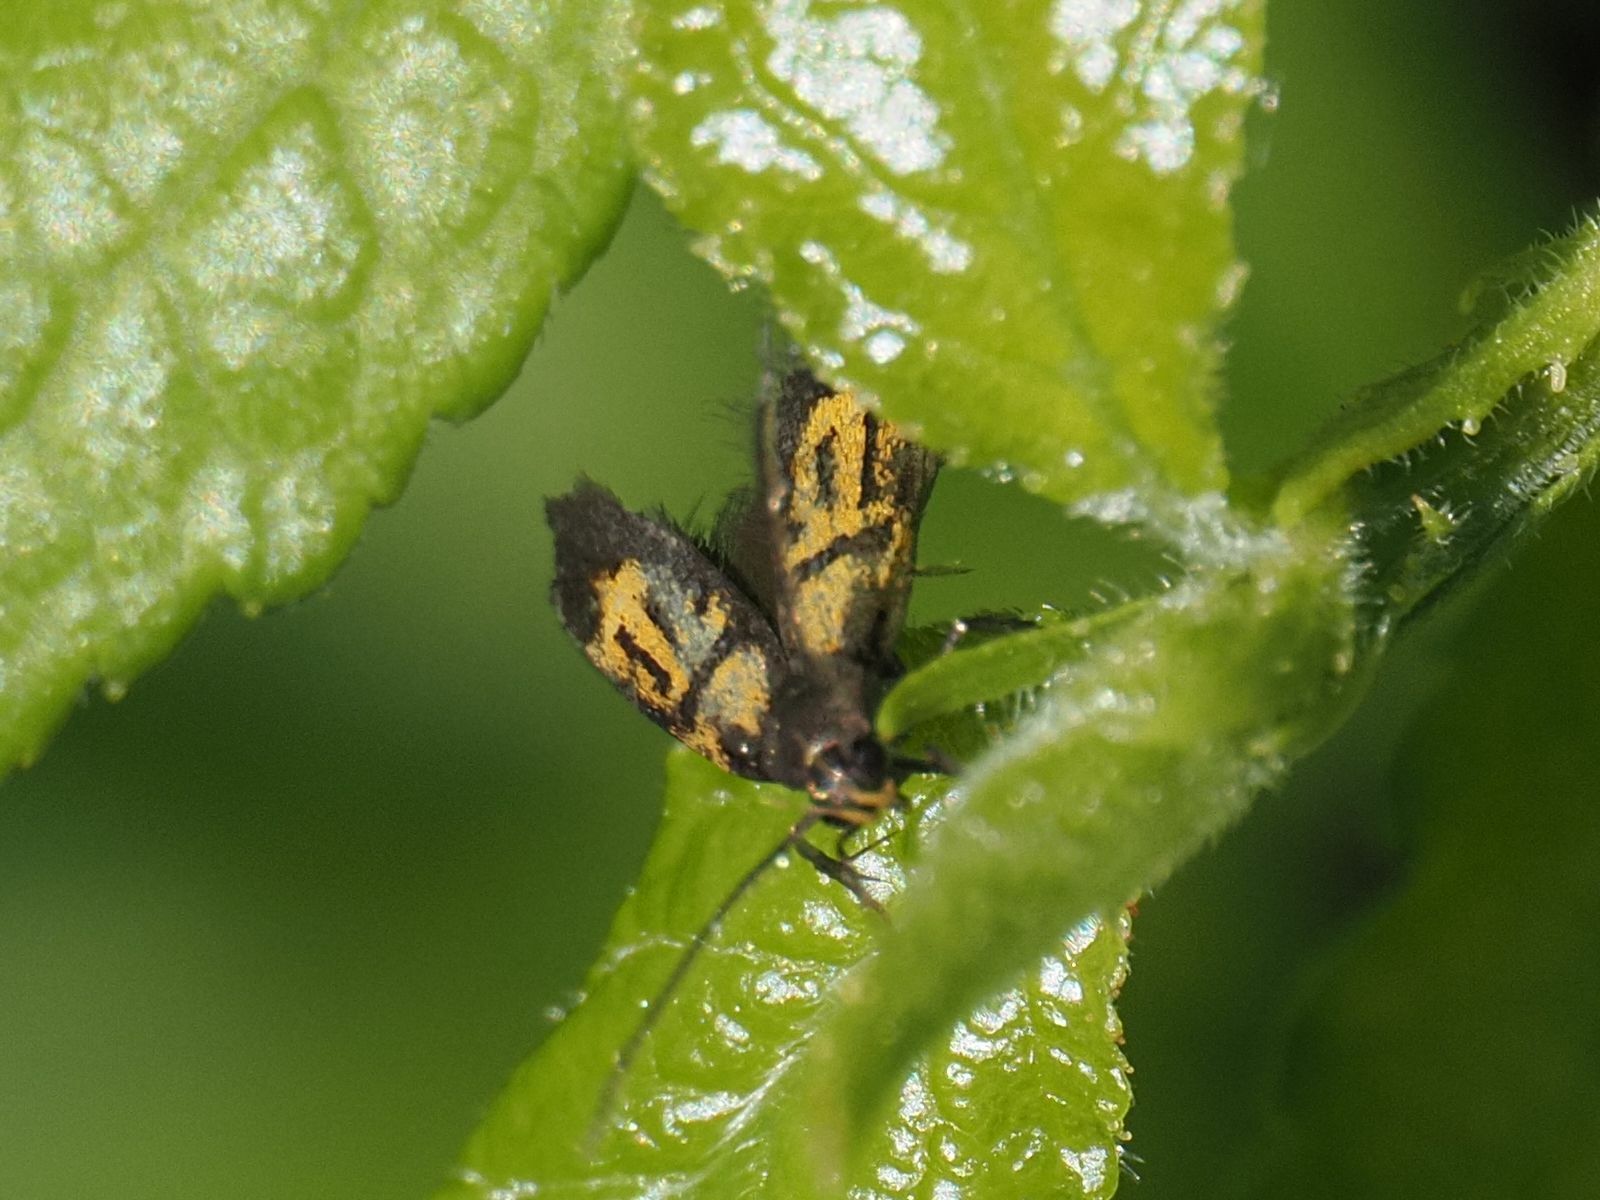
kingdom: Animalia
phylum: Arthropoda
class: Insecta
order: Lepidoptera
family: Oecophoridae
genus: Schiffermuelleria
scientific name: Schiffermuelleria schaefferella
